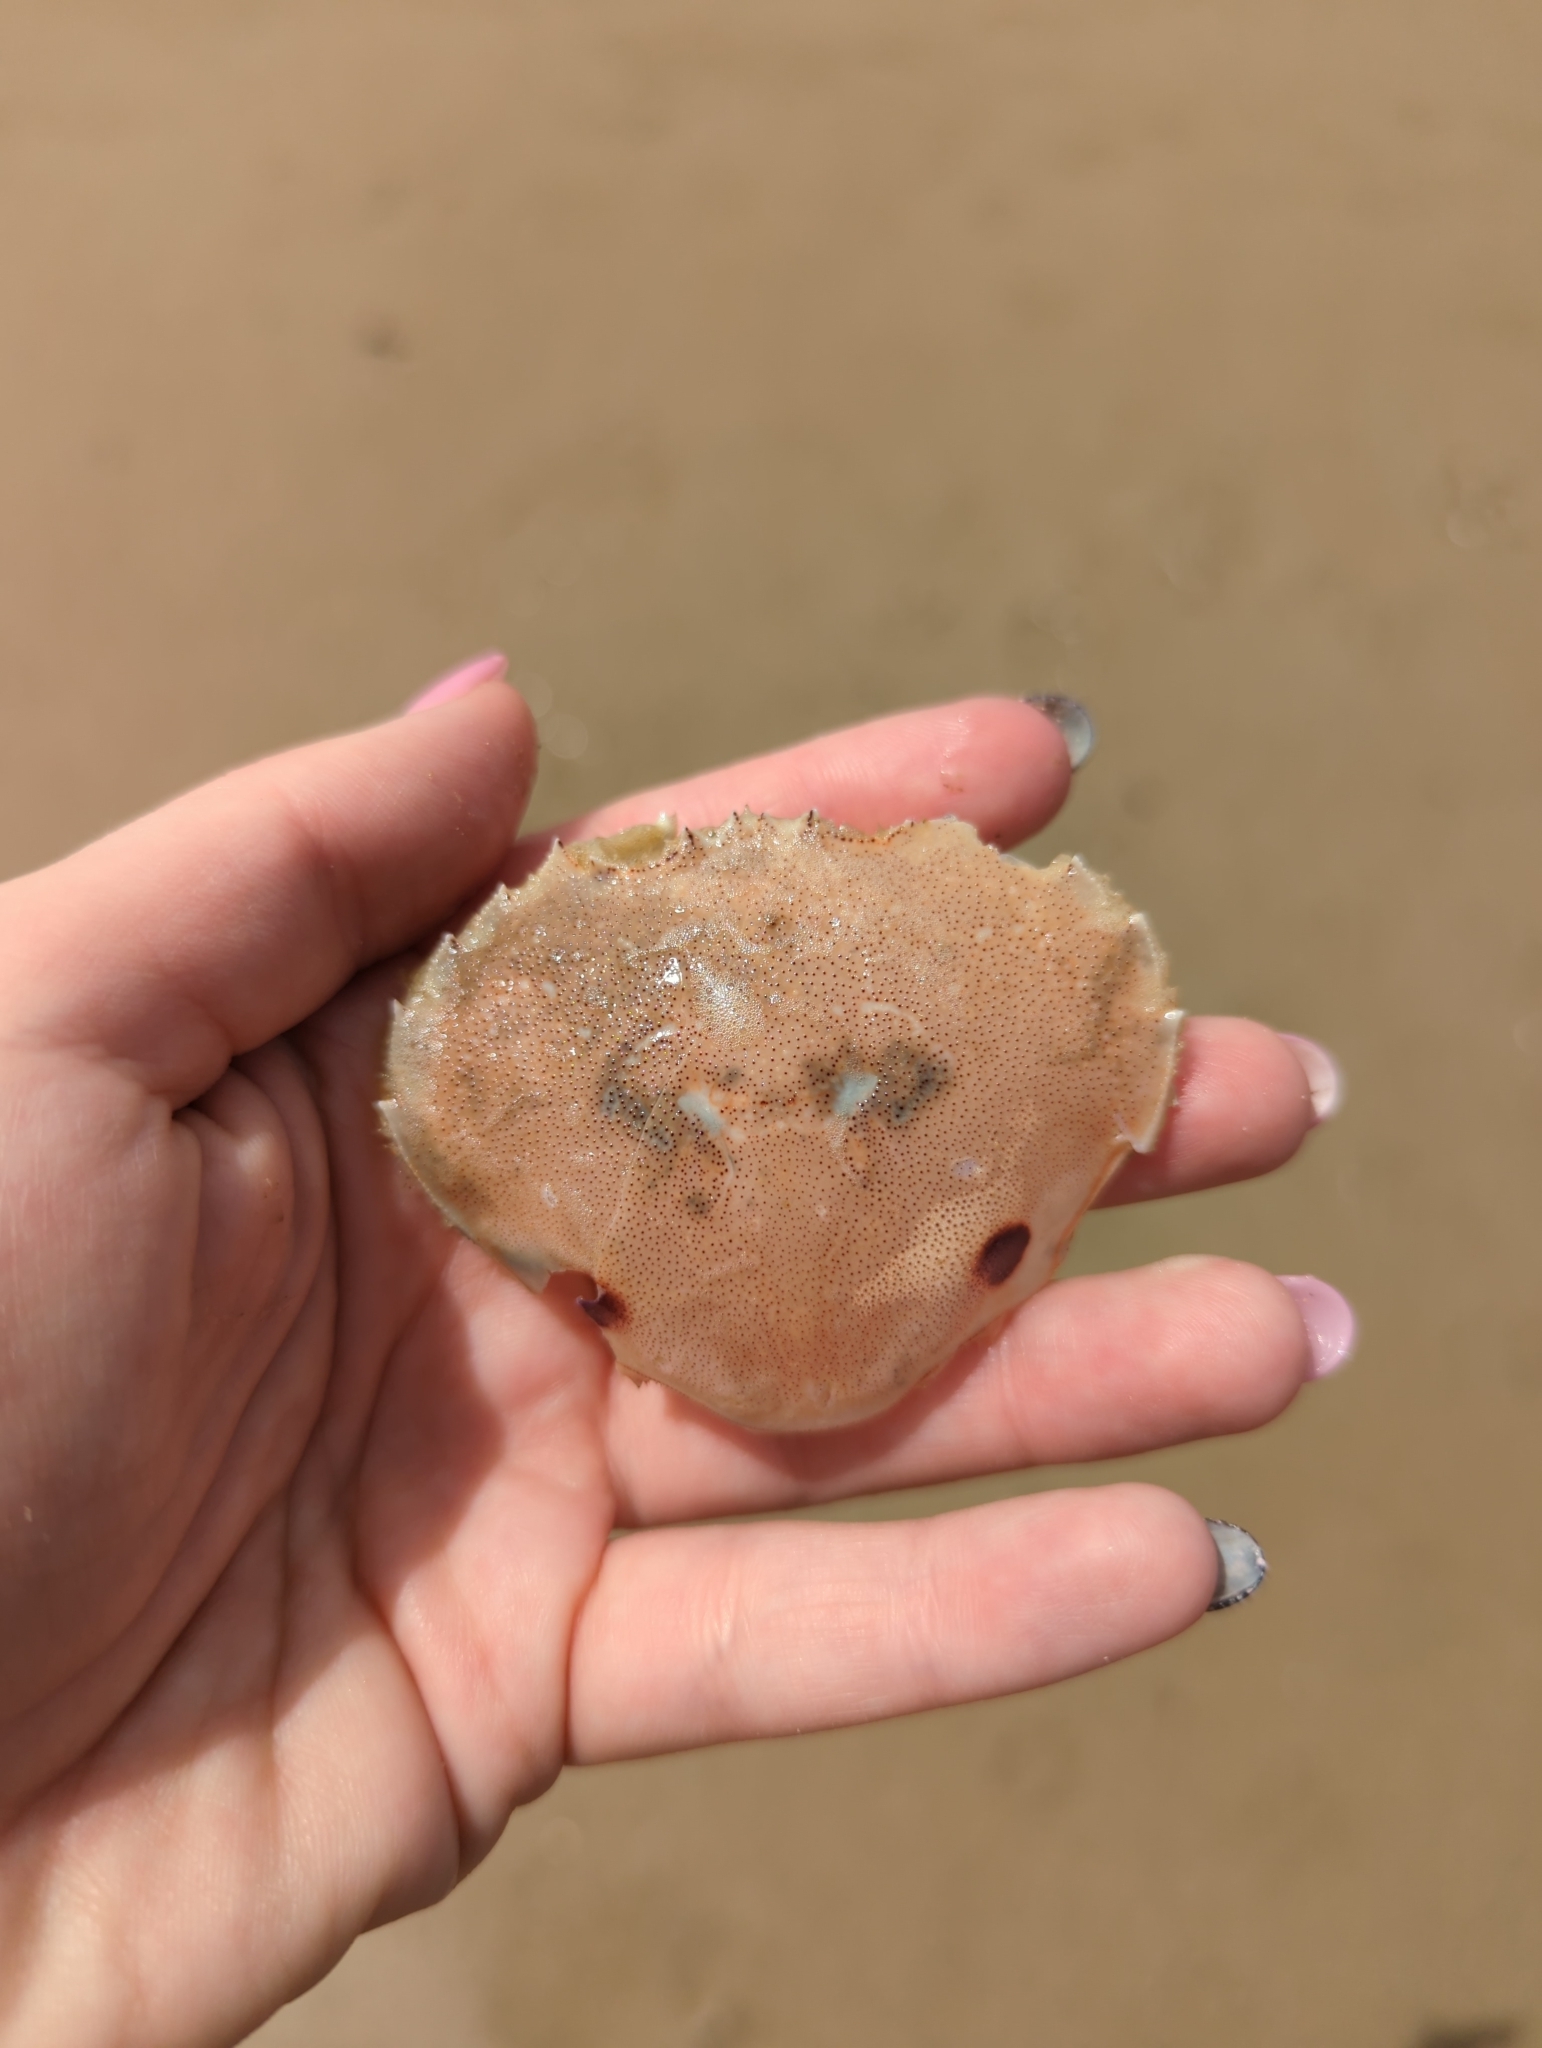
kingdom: Animalia
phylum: Arthropoda
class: Malacostraca
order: Decapoda
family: Ovalipidae
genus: Ovalipes
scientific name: Ovalipes australiensis
